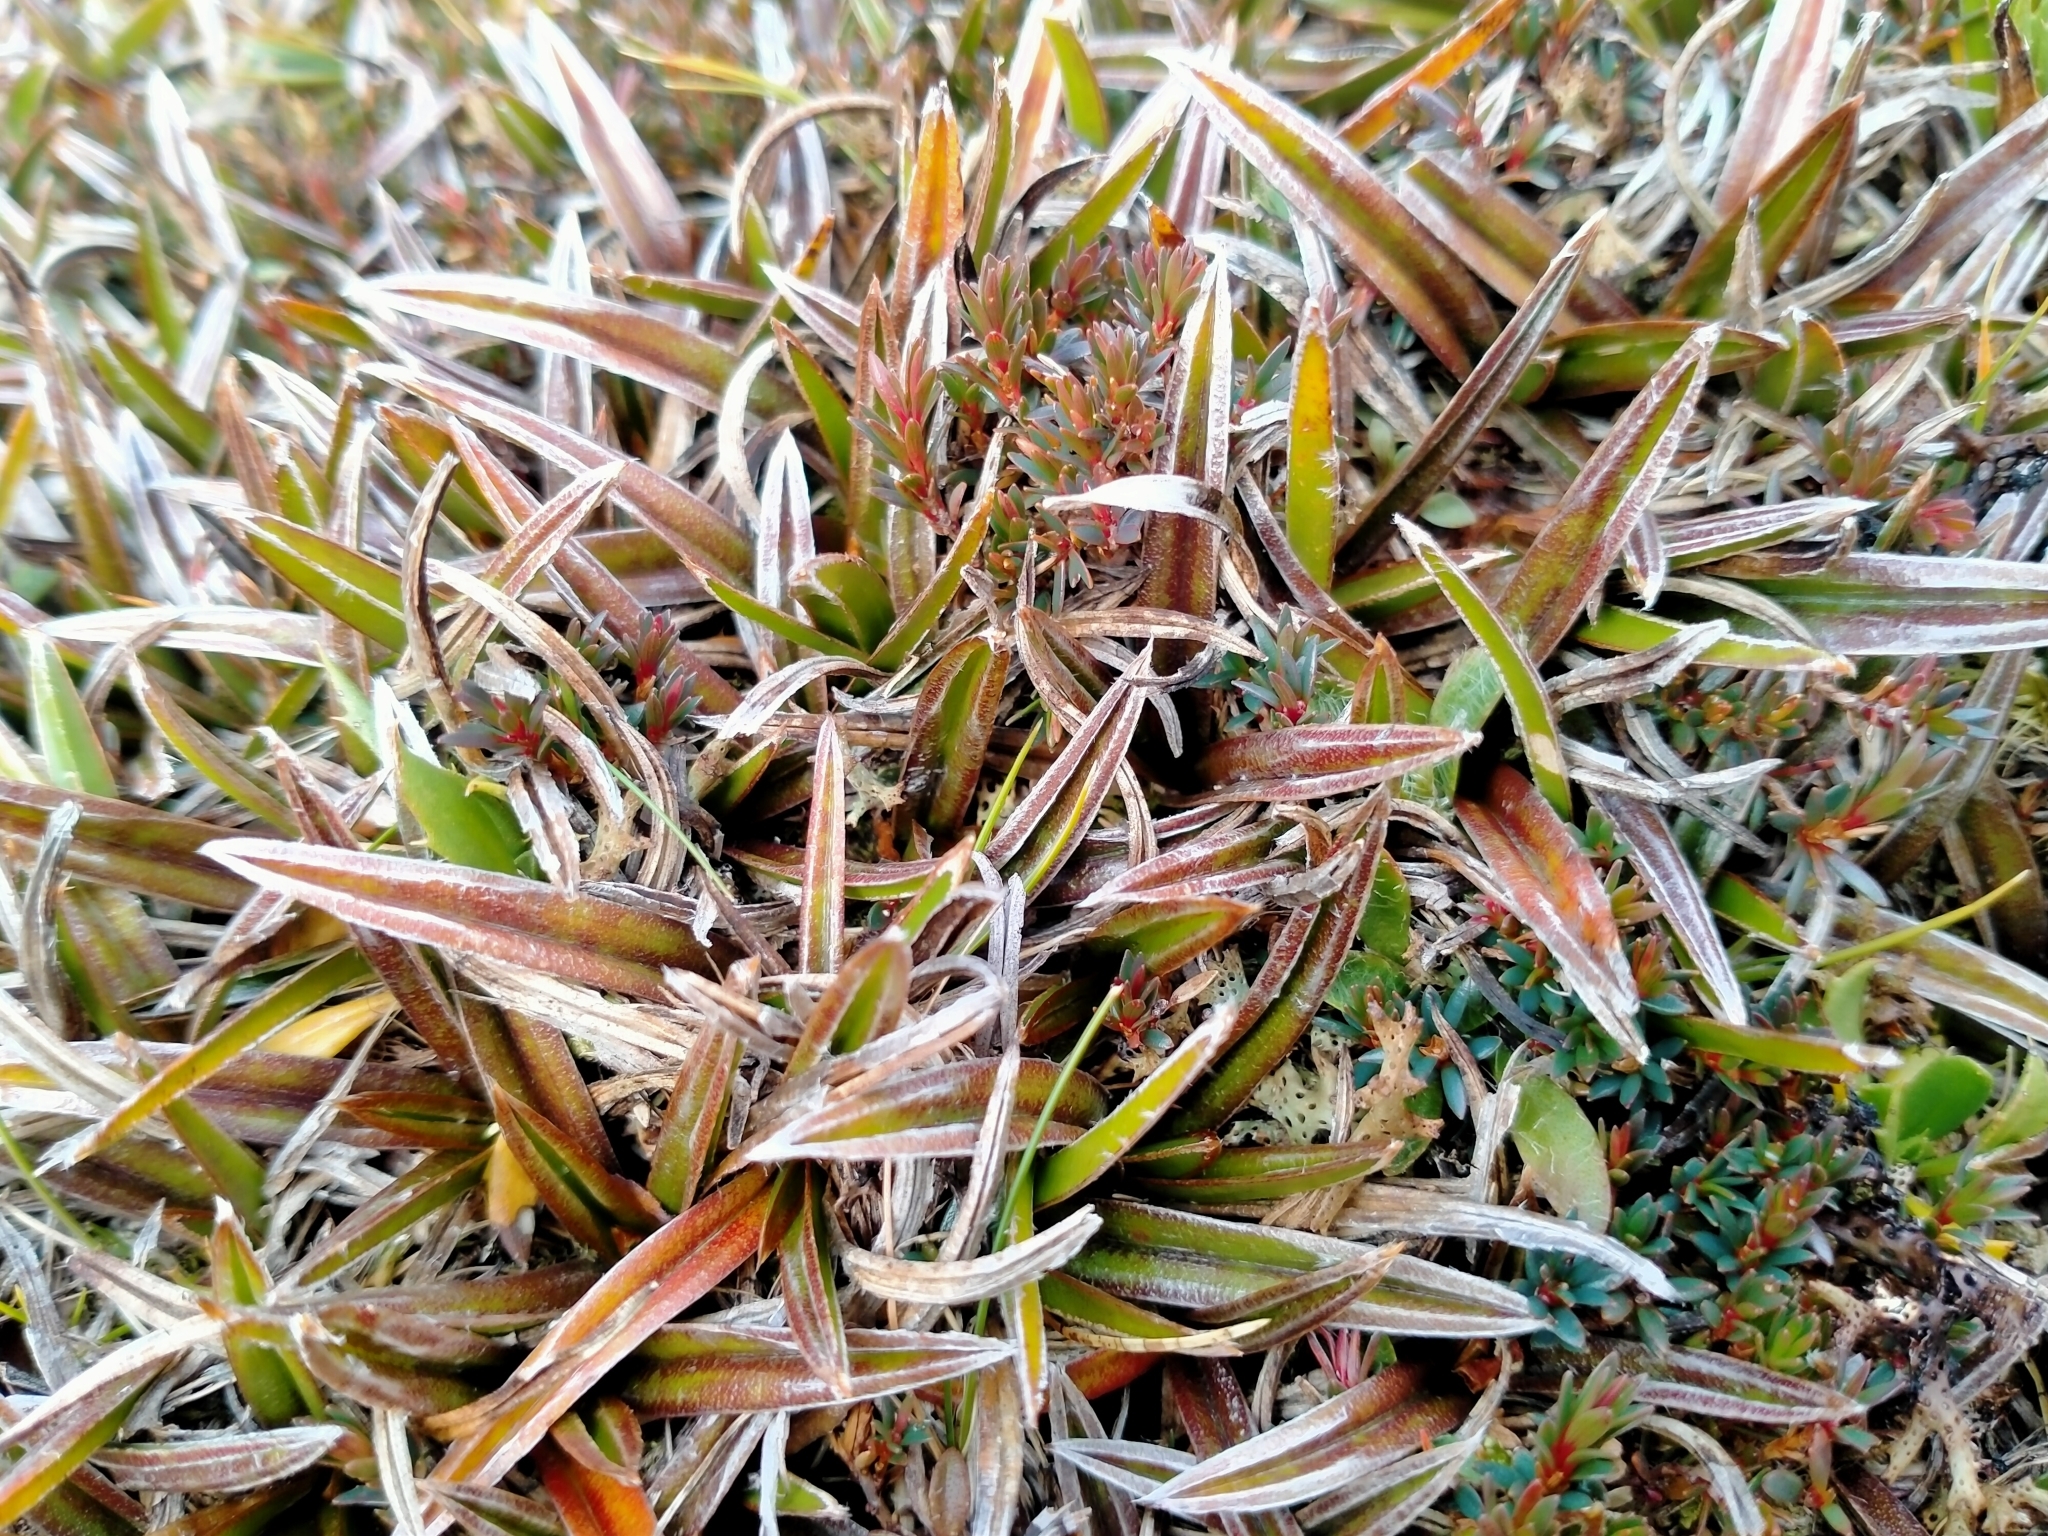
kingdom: Plantae
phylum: Tracheophyta
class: Liliopsida
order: Asparagales
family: Asteliaceae
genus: Astelia
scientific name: Astelia linearis
